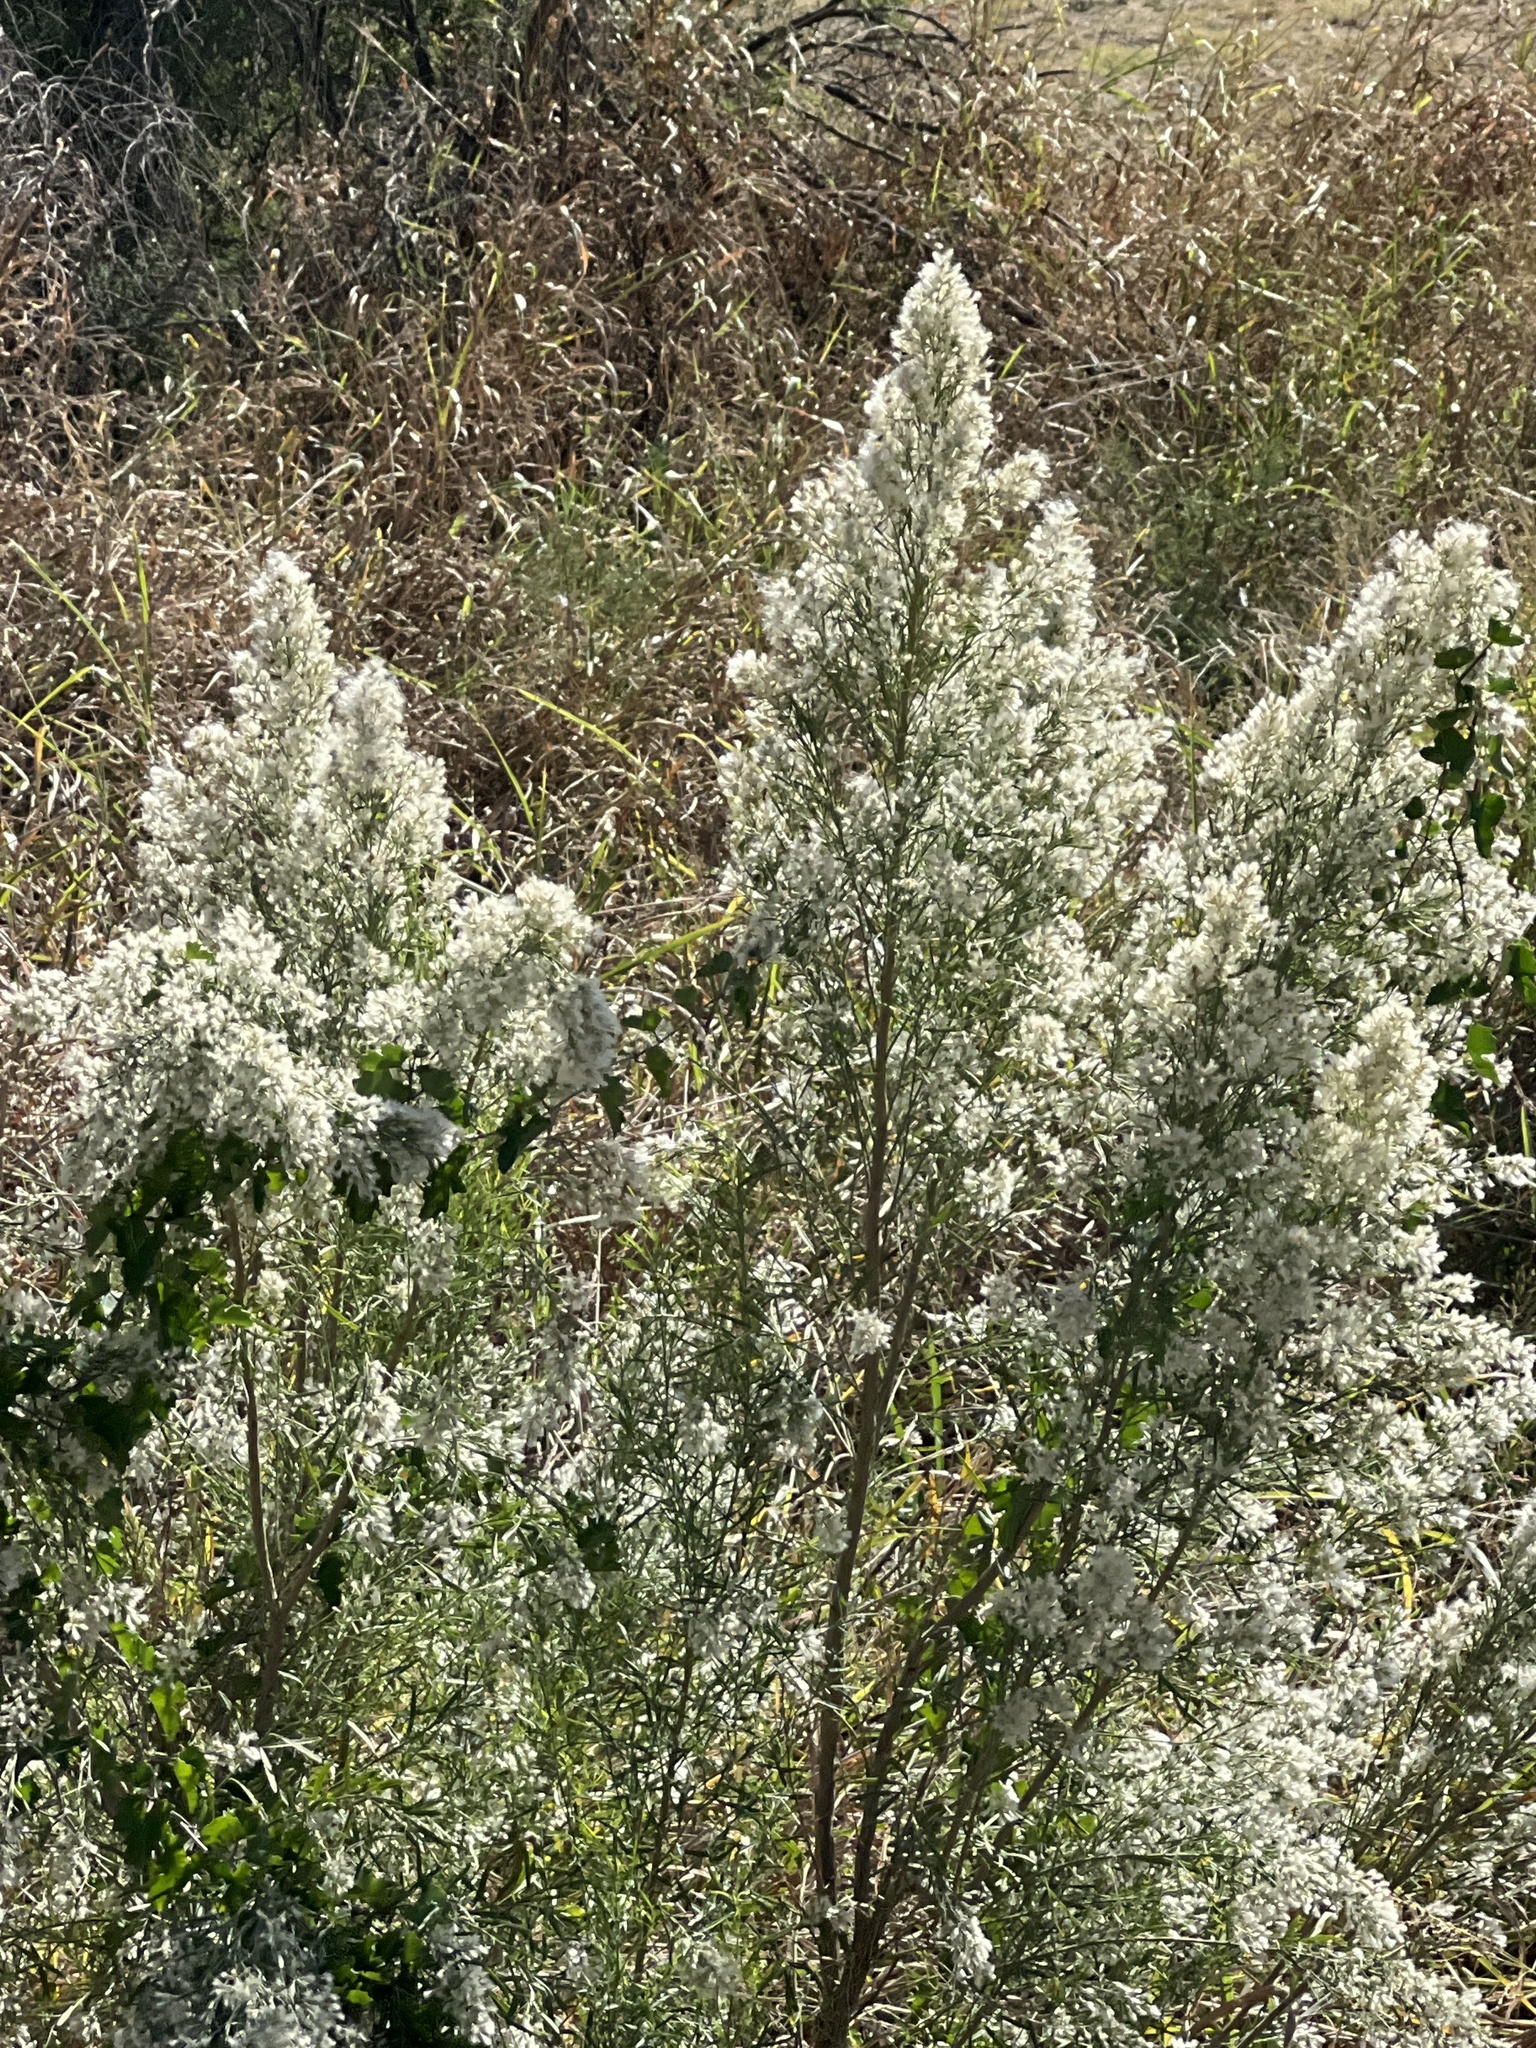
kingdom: Plantae
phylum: Tracheophyta
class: Magnoliopsida
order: Asterales
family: Asteraceae
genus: Baccharis
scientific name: Baccharis neglecta
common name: Roosevelt-weed
